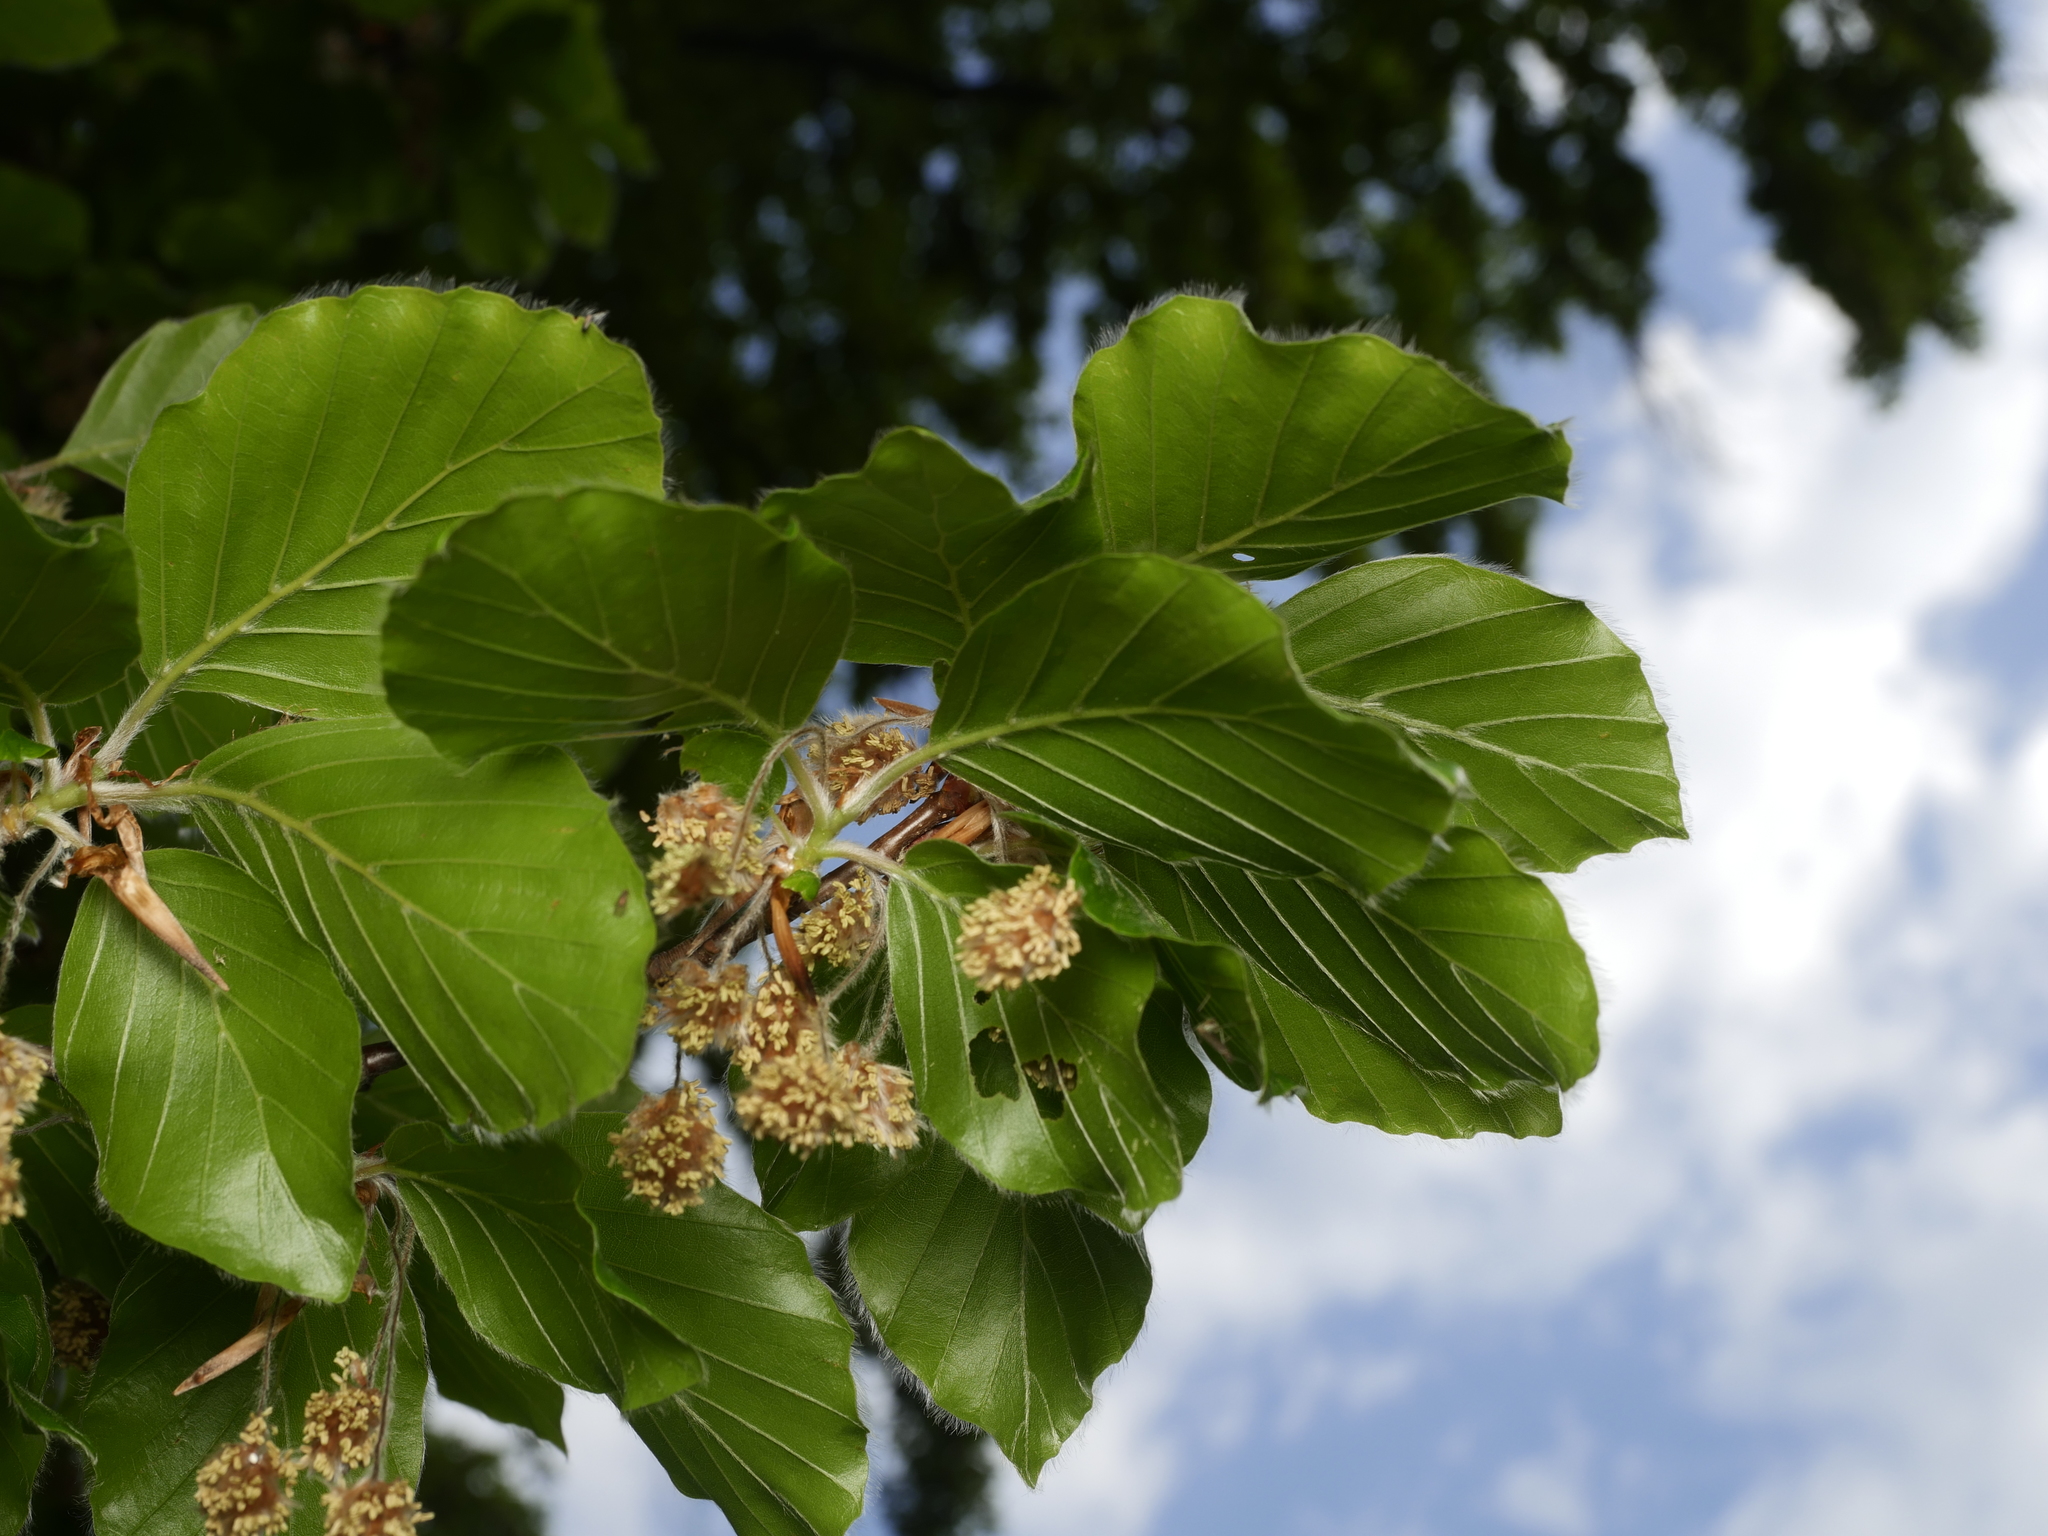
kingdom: Plantae
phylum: Tracheophyta
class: Magnoliopsida
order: Fagales
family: Fagaceae
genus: Fagus
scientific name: Fagus sylvatica
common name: Beech
